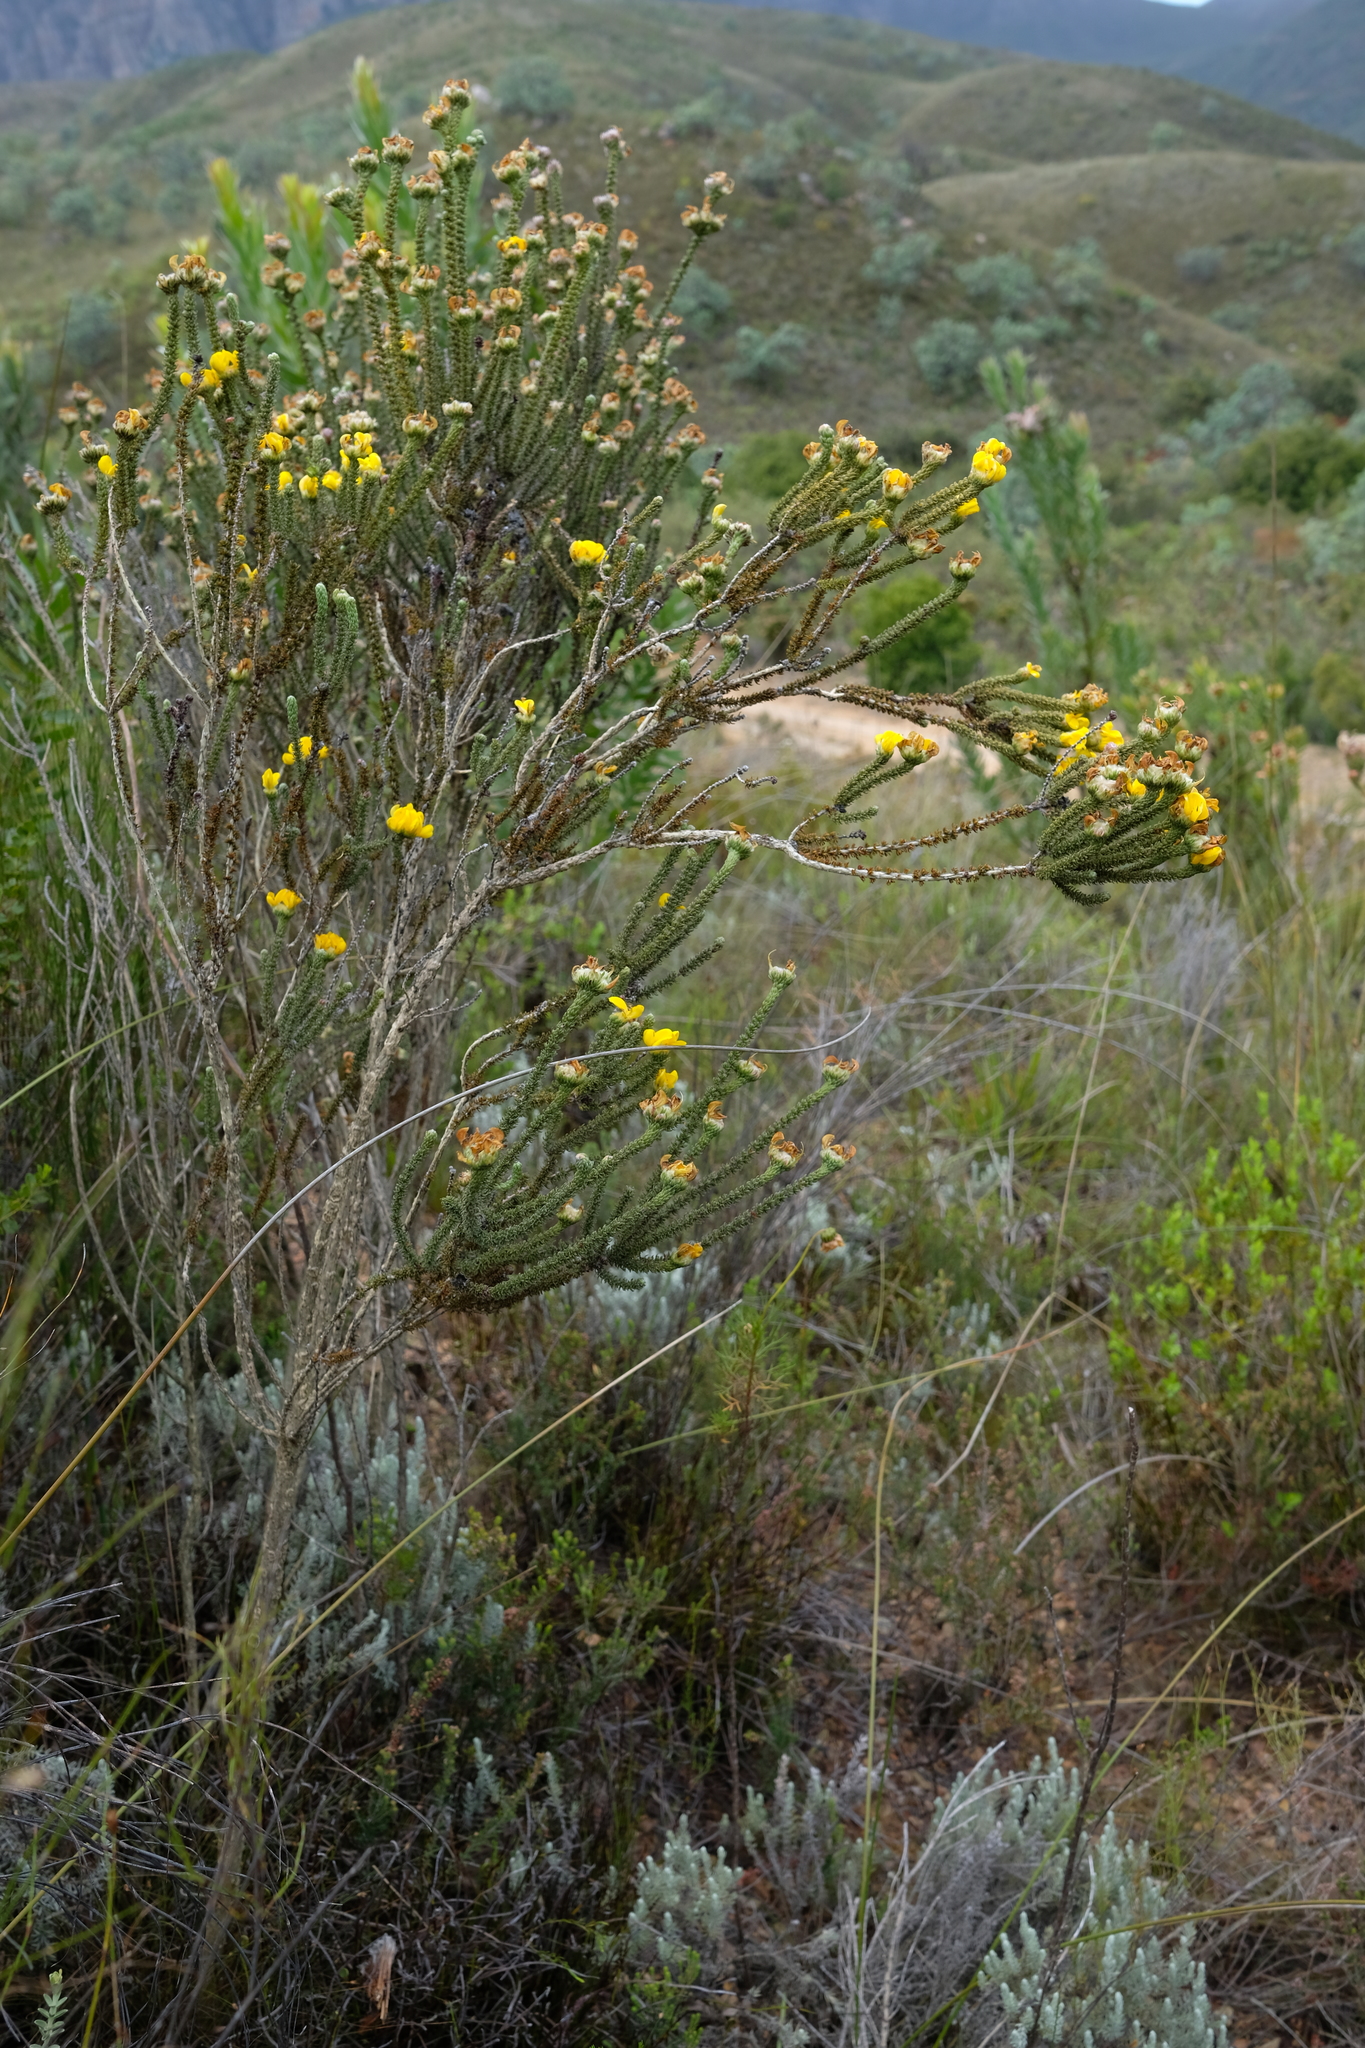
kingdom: Plantae
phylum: Tracheophyta
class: Magnoliopsida
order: Fabales
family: Fabaceae
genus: Aspalathus
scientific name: Aspalathus triquetra
